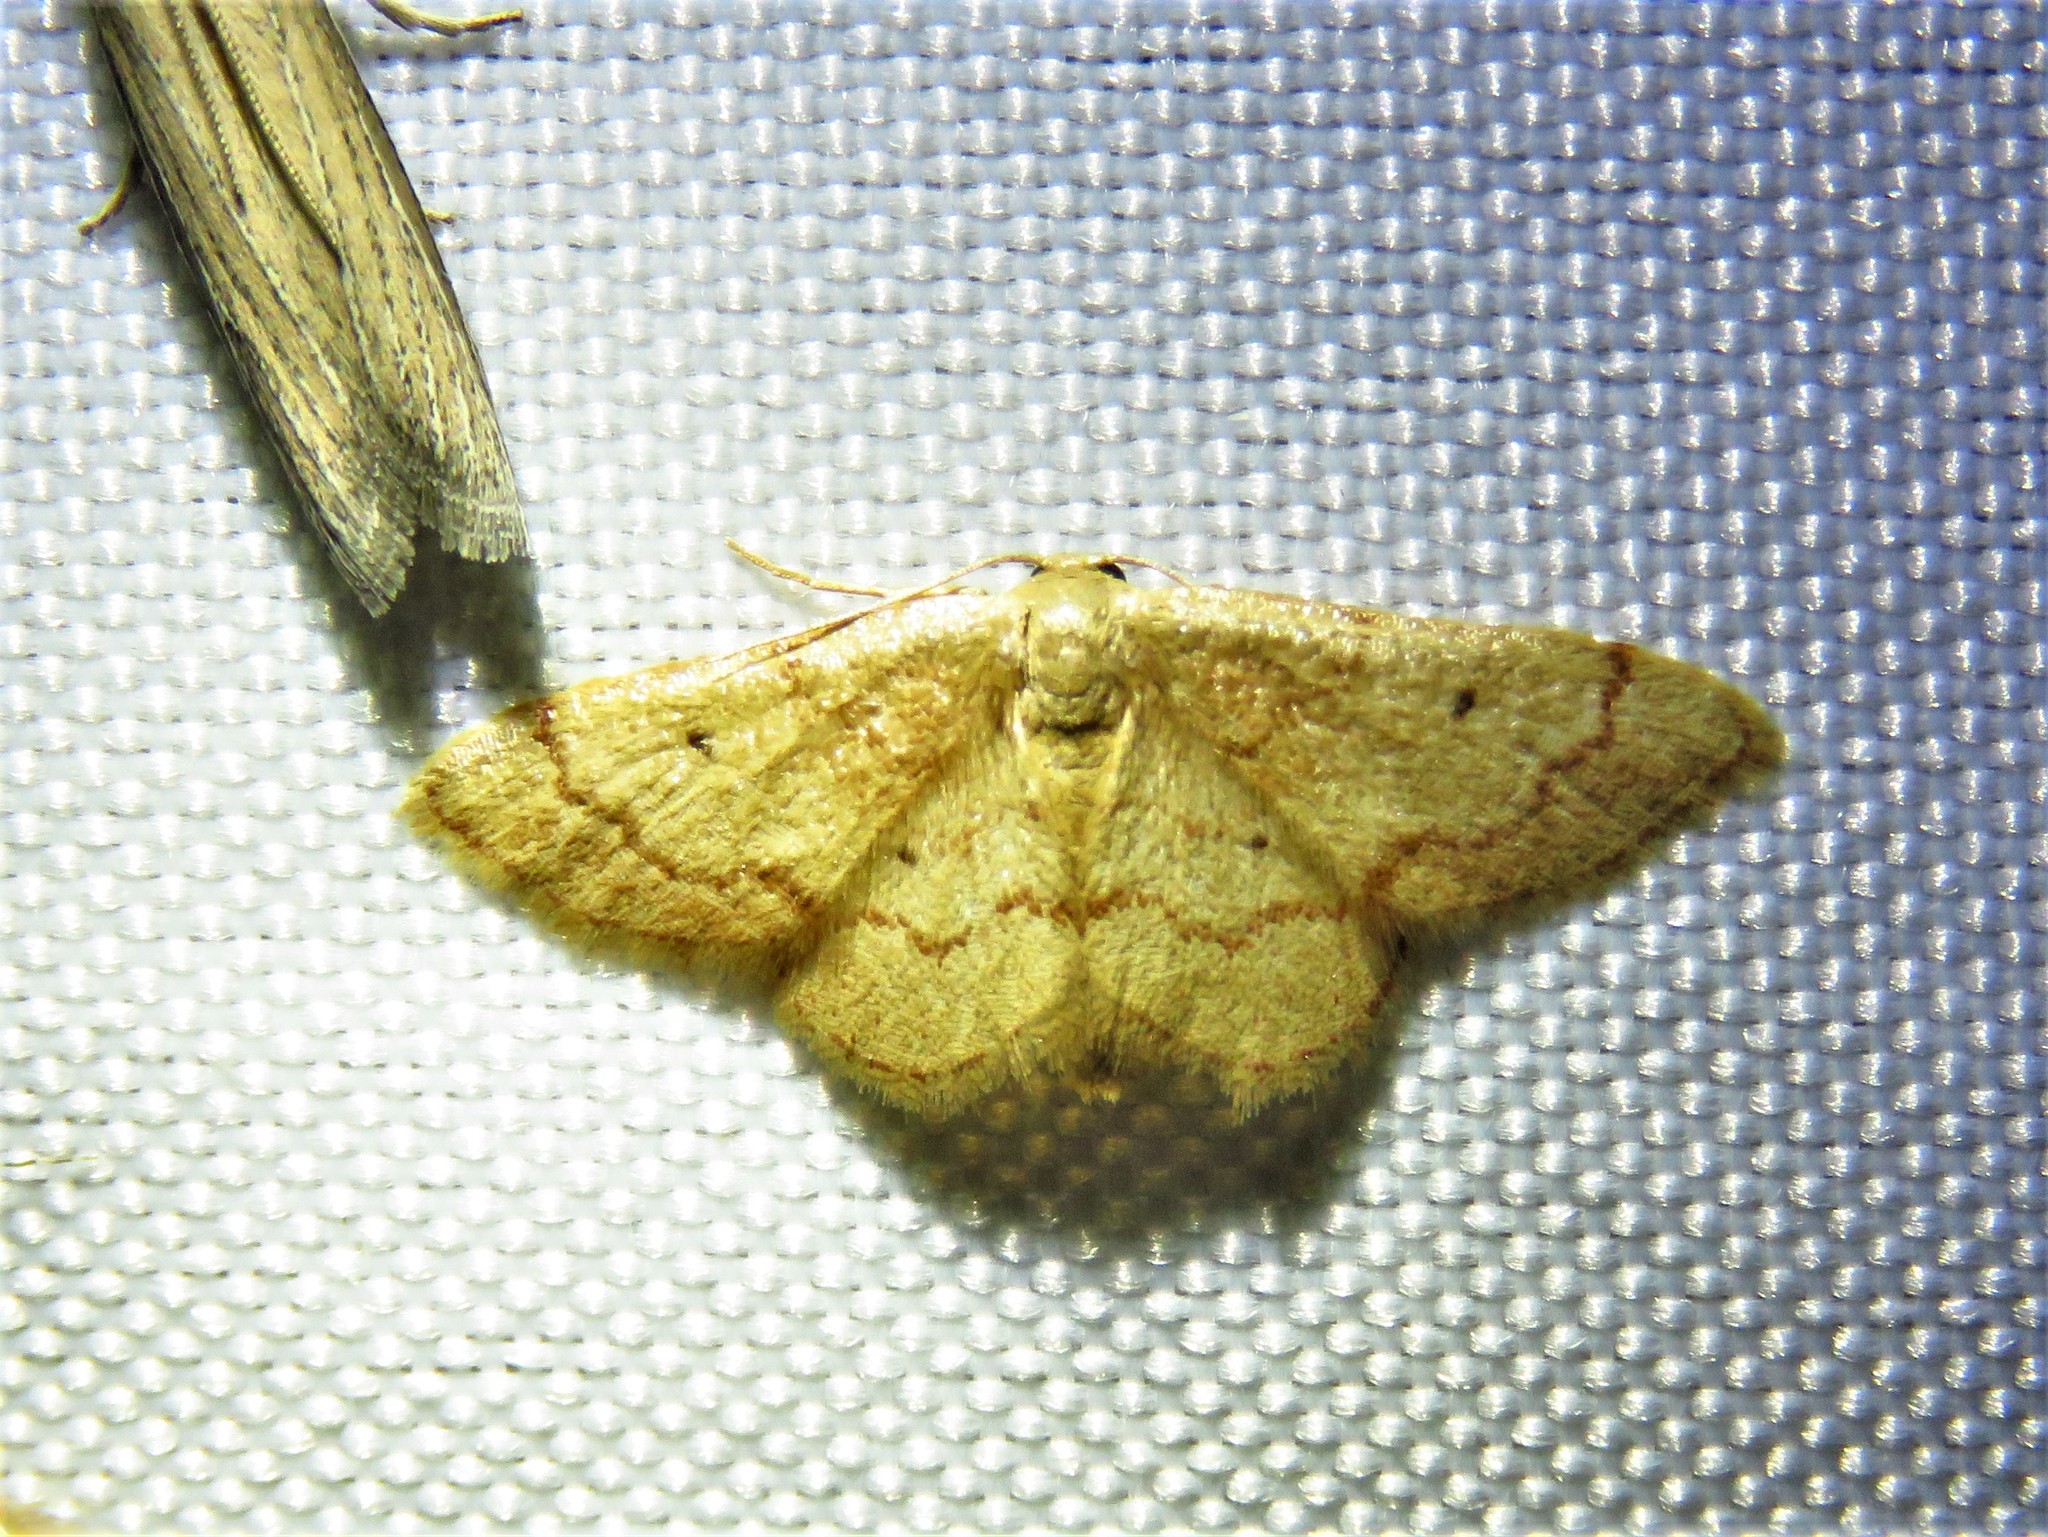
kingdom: Animalia
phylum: Arthropoda
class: Insecta
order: Lepidoptera
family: Geometridae
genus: Idaea
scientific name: Idaea demissaria
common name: Red-bordered wave
